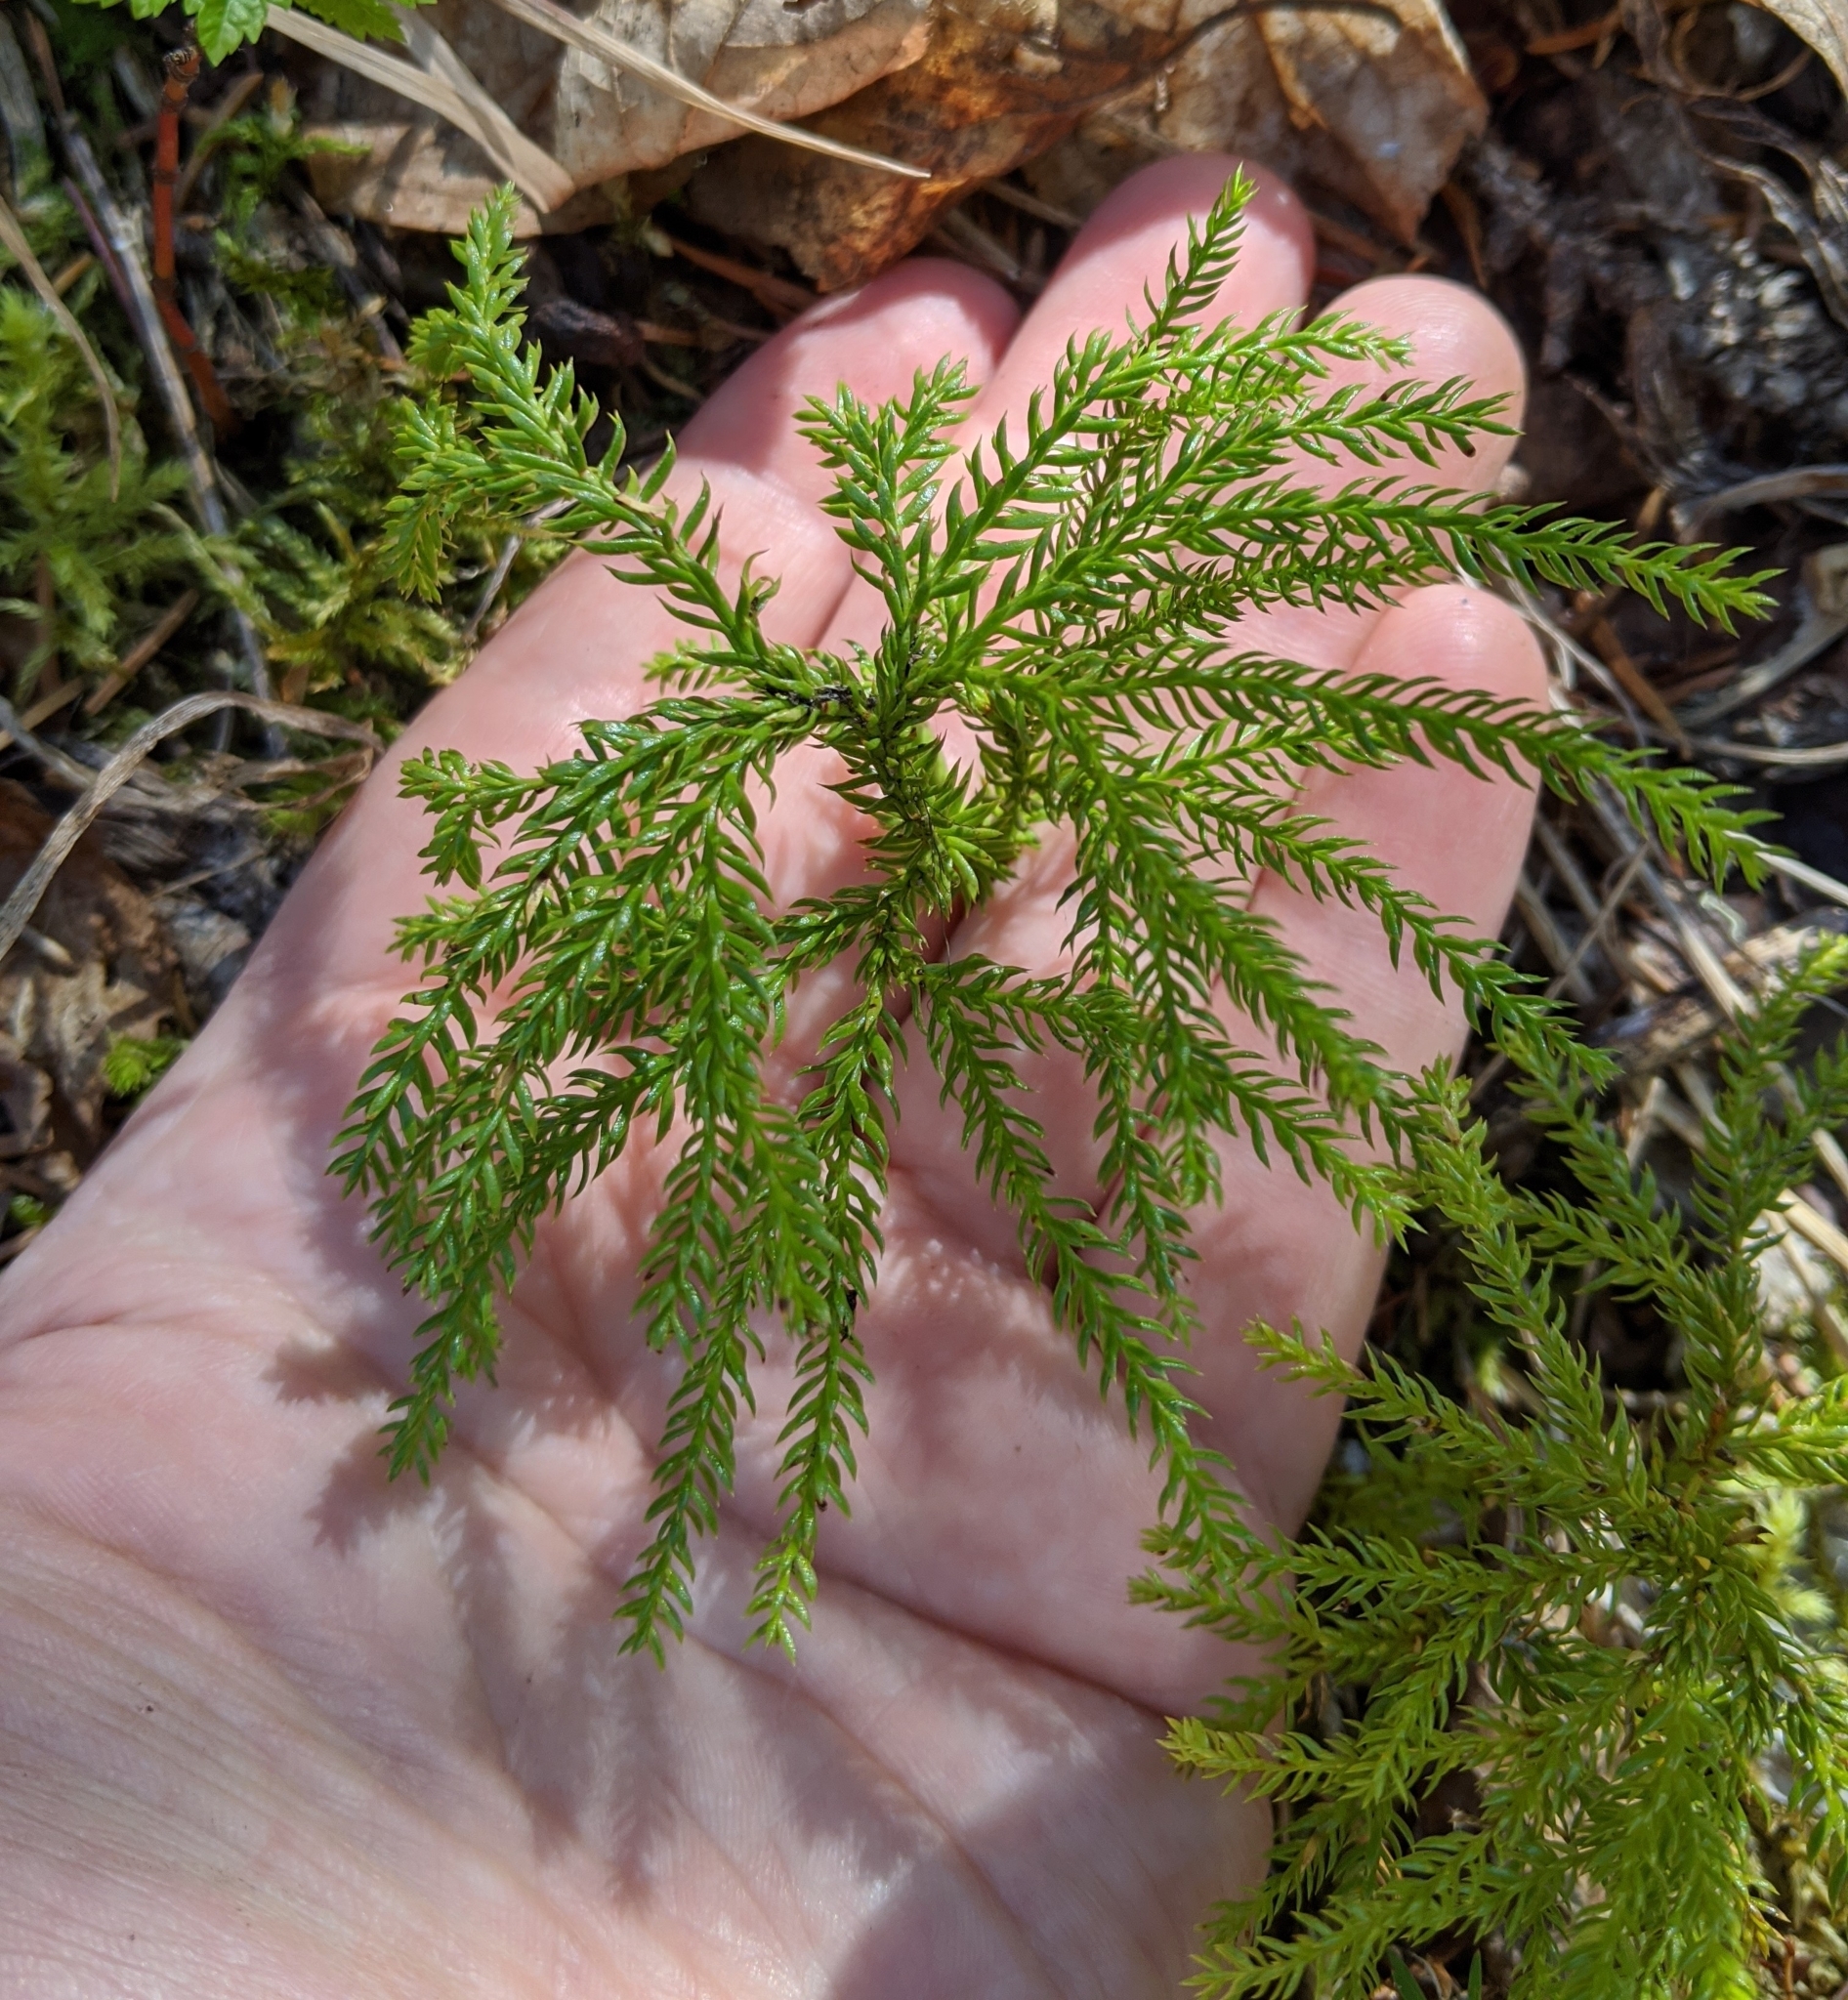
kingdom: Plantae
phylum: Tracheophyta
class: Lycopodiopsida
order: Lycopodiales
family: Lycopodiaceae
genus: Dendrolycopodium
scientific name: Dendrolycopodium dendroideum
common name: Northern tree-clubmoss
